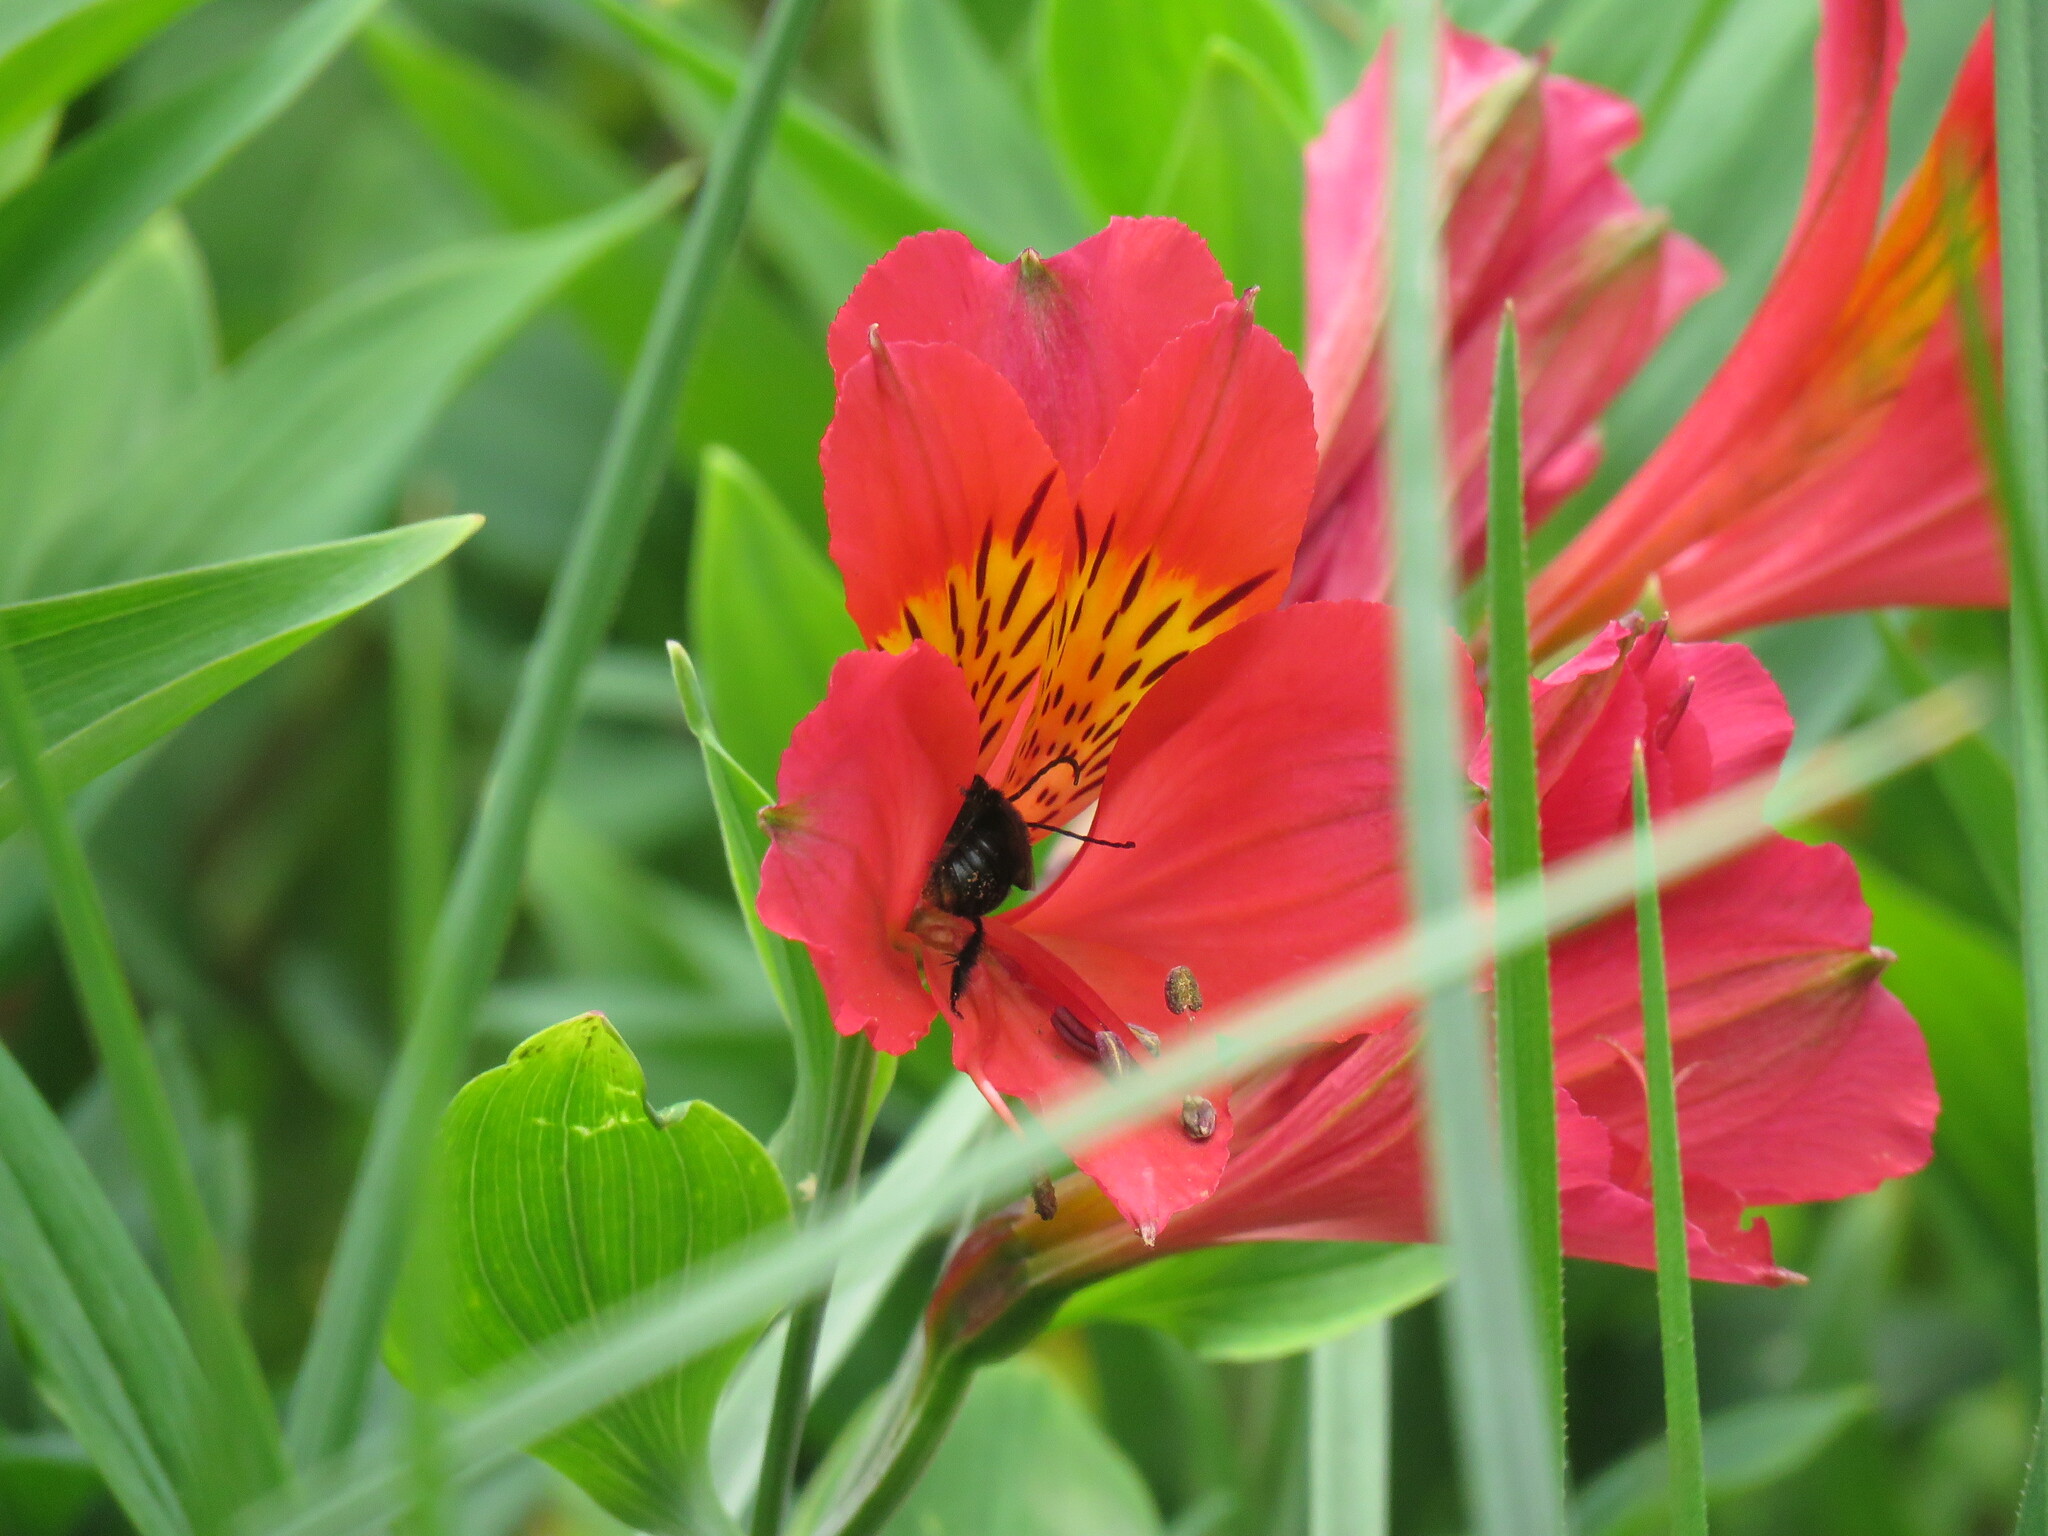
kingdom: Animalia
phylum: Arthropoda
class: Insecta
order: Hymenoptera
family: Apidae
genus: Thygater
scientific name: Thygater aethiops
